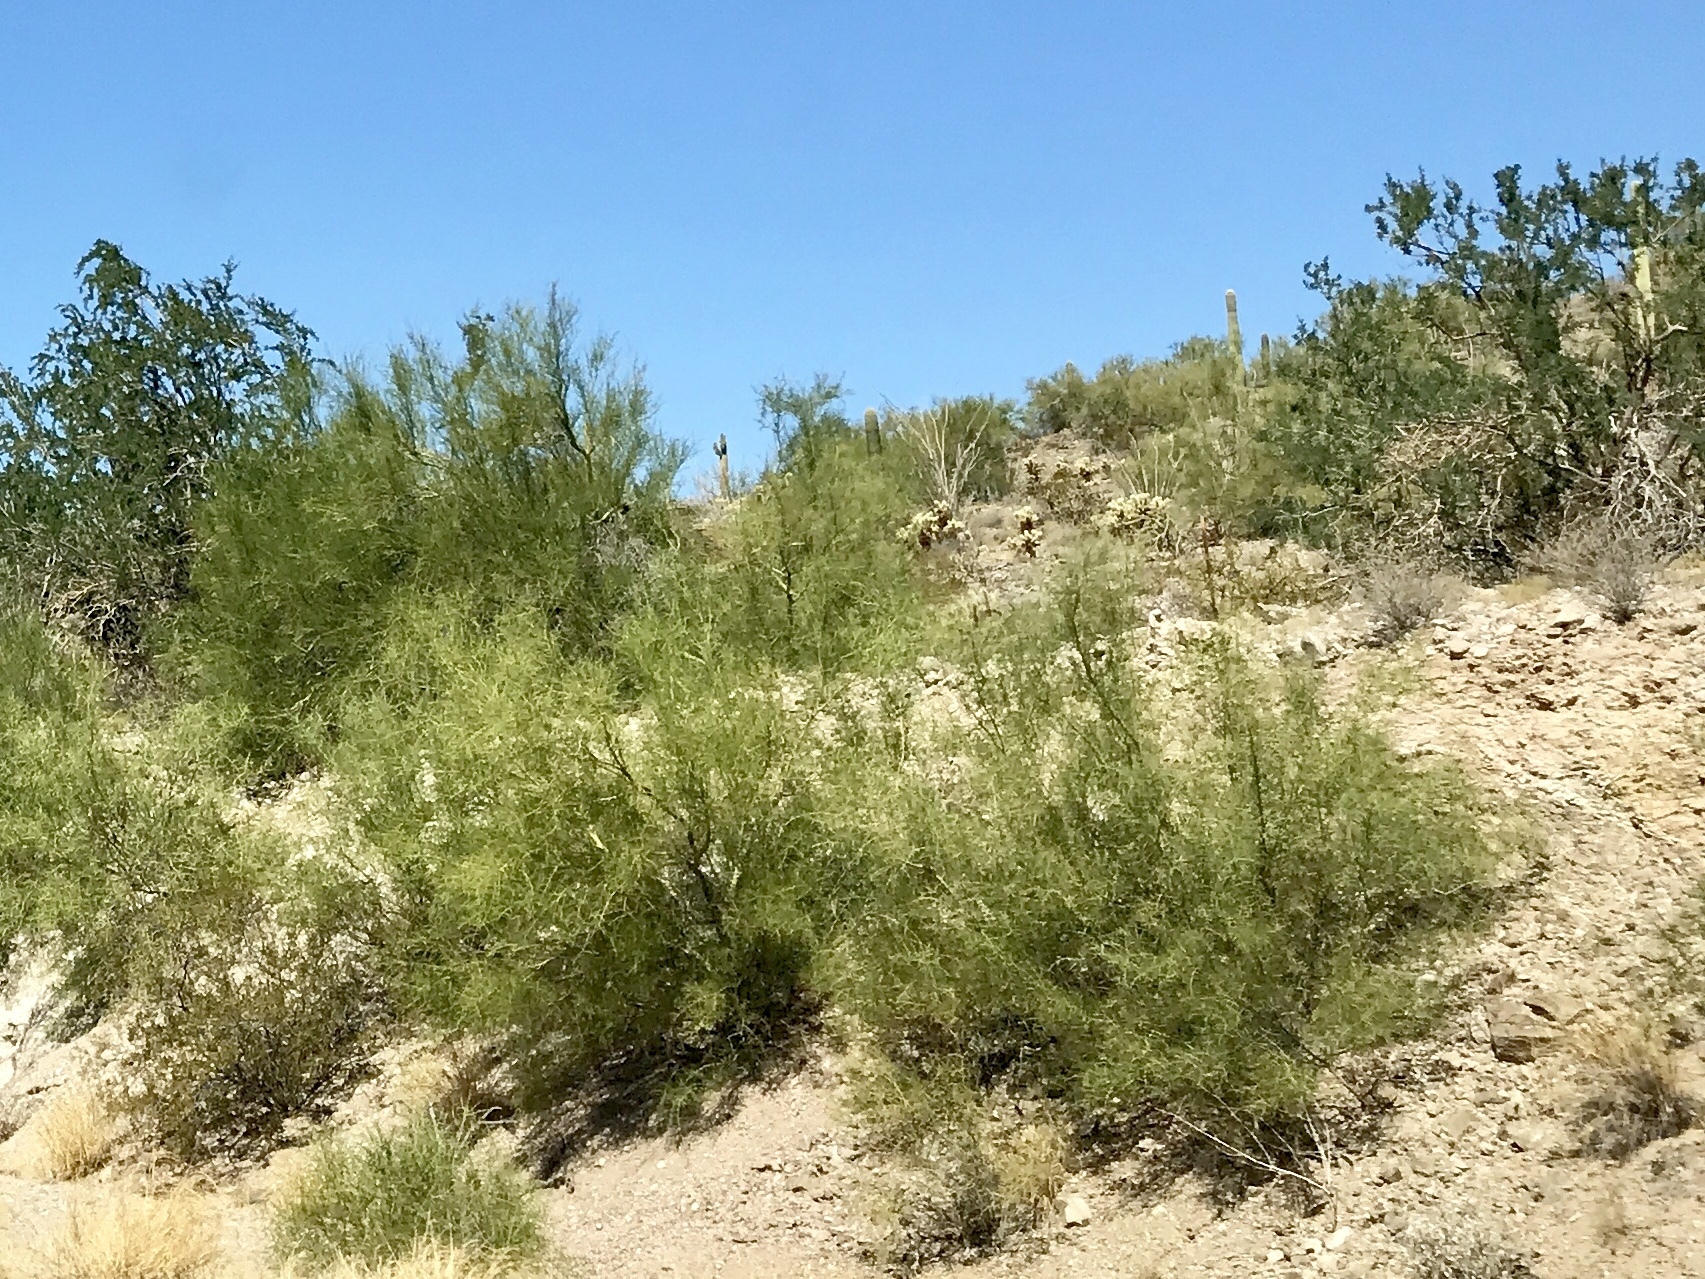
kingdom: Plantae
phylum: Tracheophyta
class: Magnoliopsida
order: Fabales
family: Fabaceae
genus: Parkinsonia
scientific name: Parkinsonia microphylla
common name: Yellow paloverde
